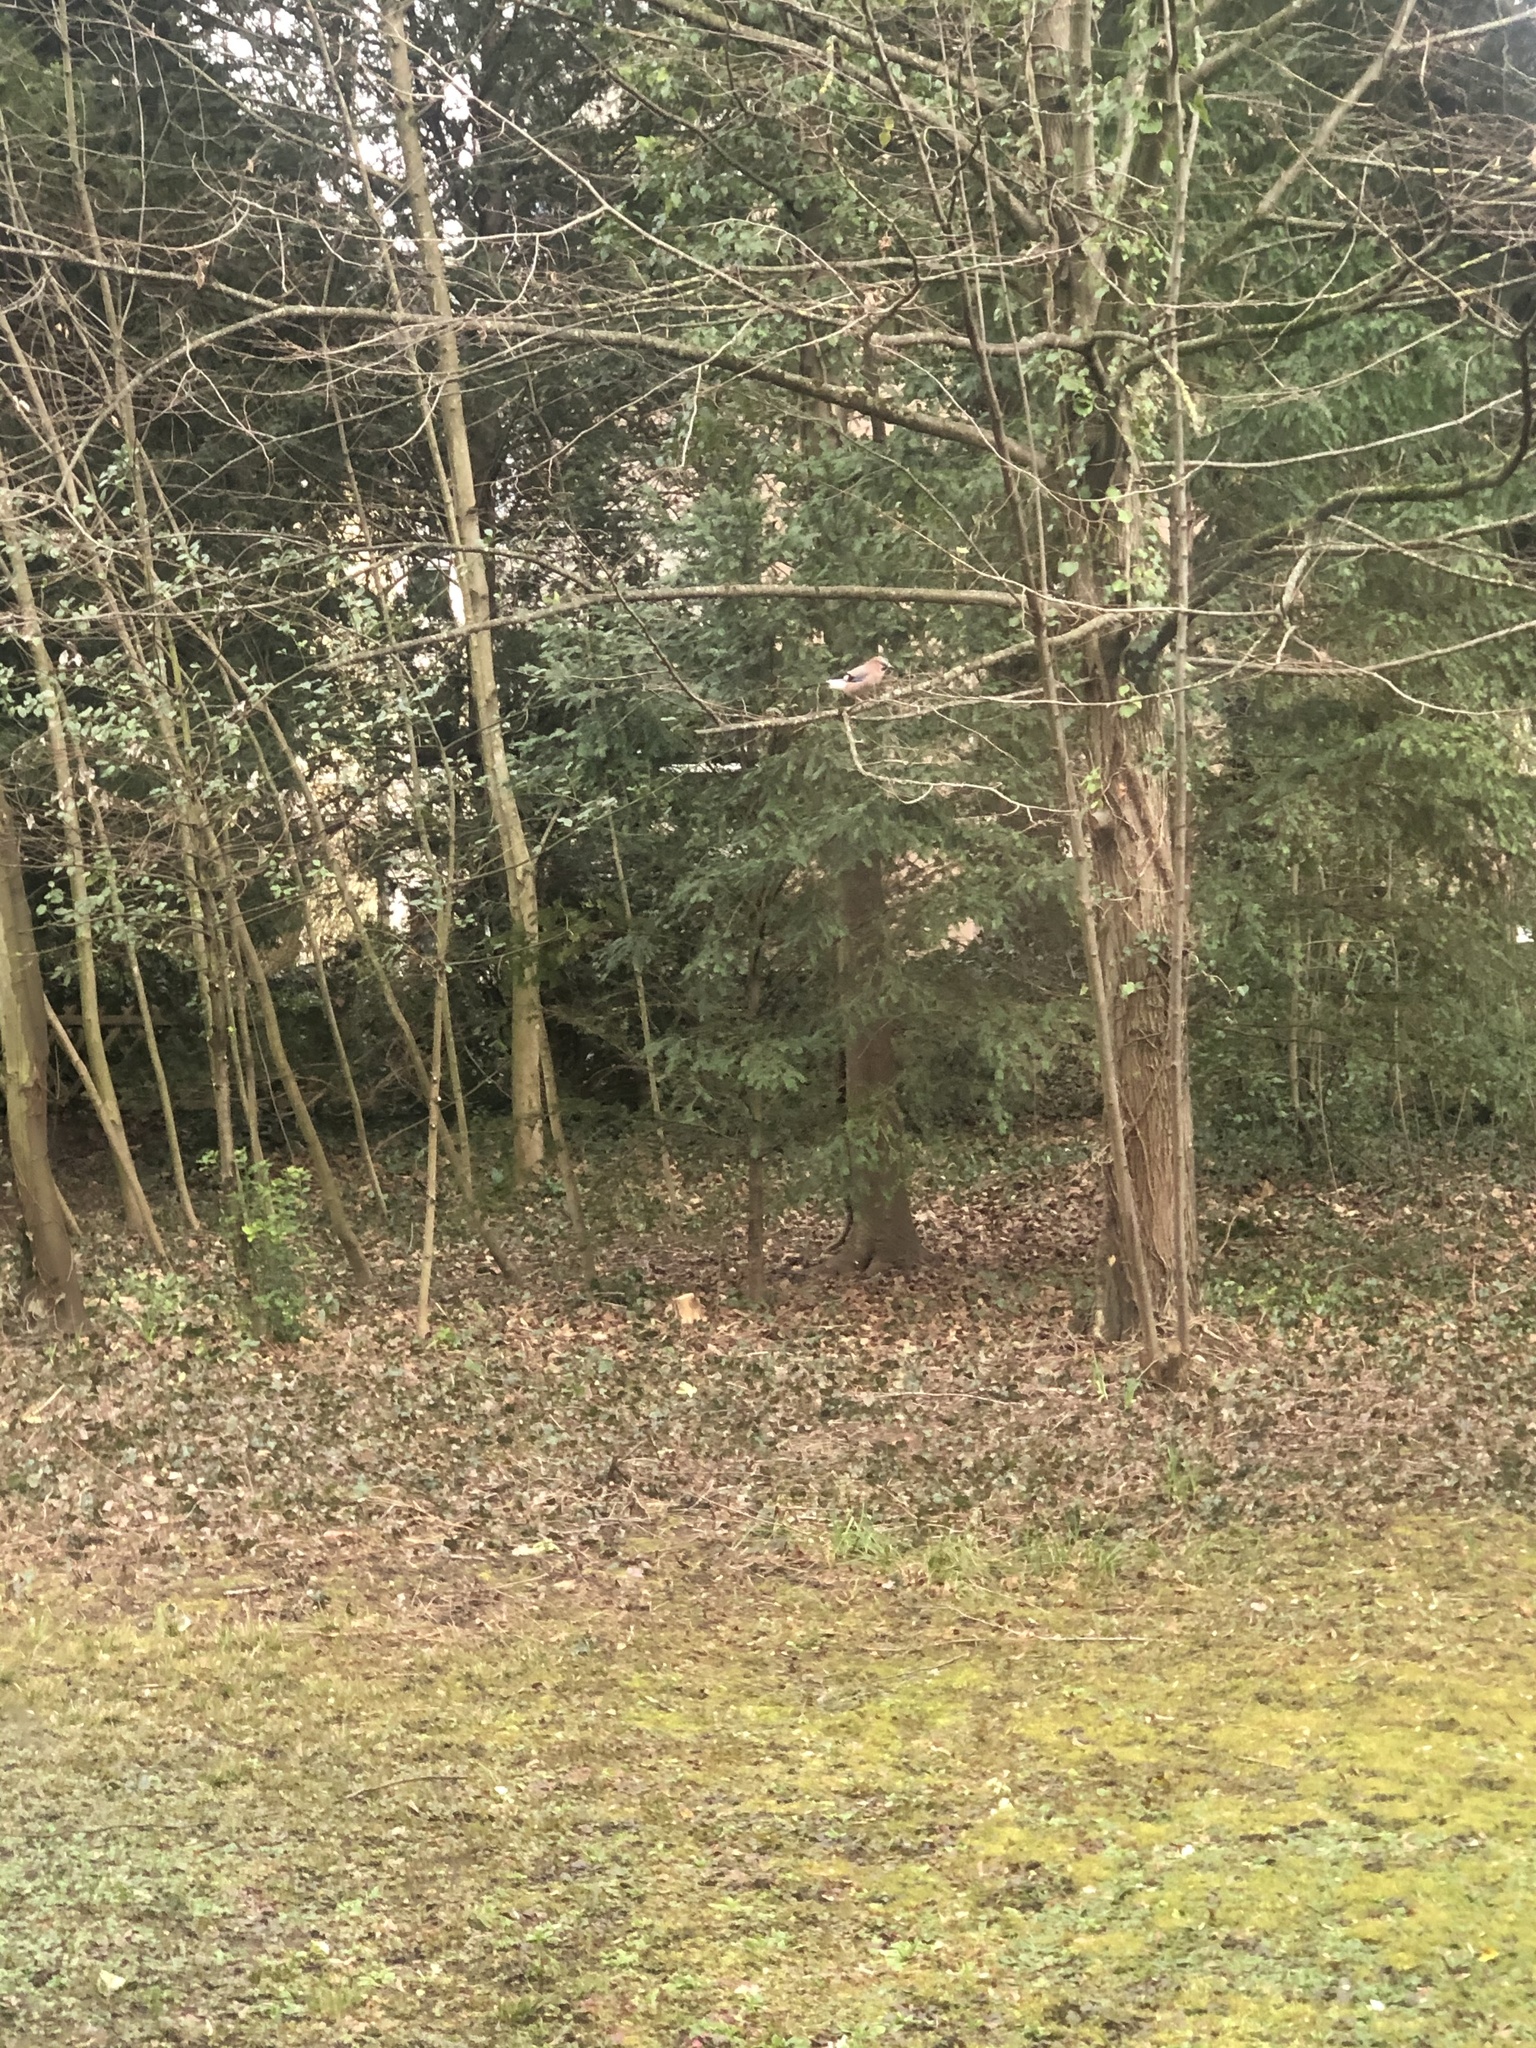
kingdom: Animalia
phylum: Chordata
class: Aves
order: Passeriformes
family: Corvidae
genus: Garrulus
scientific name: Garrulus glandarius
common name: Eurasian jay
